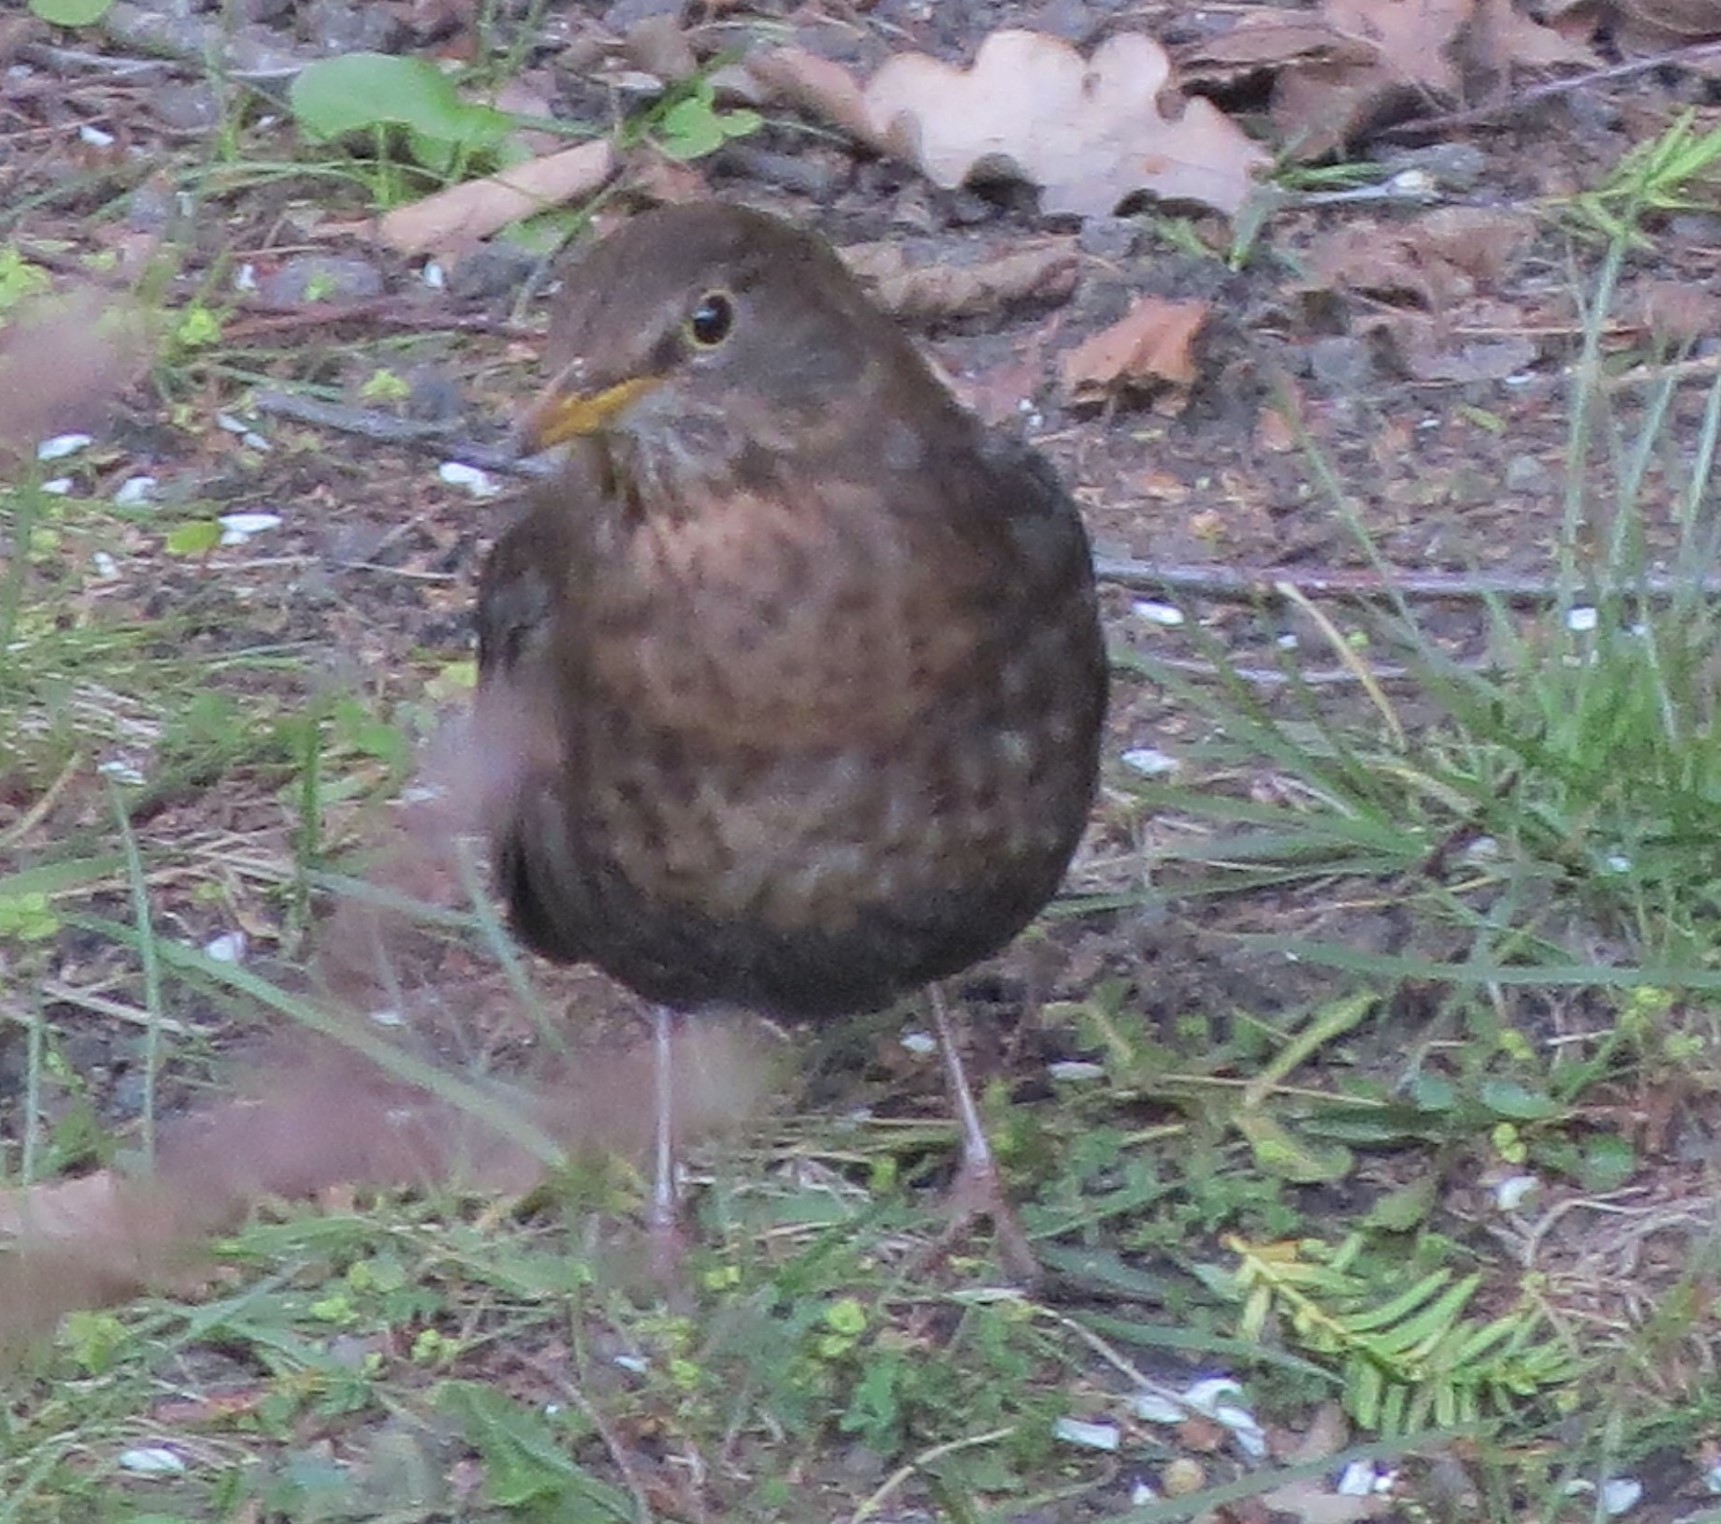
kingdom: Animalia
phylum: Chordata
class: Aves
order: Passeriformes
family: Turdidae
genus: Turdus
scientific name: Turdus merula
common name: Common blackbird
